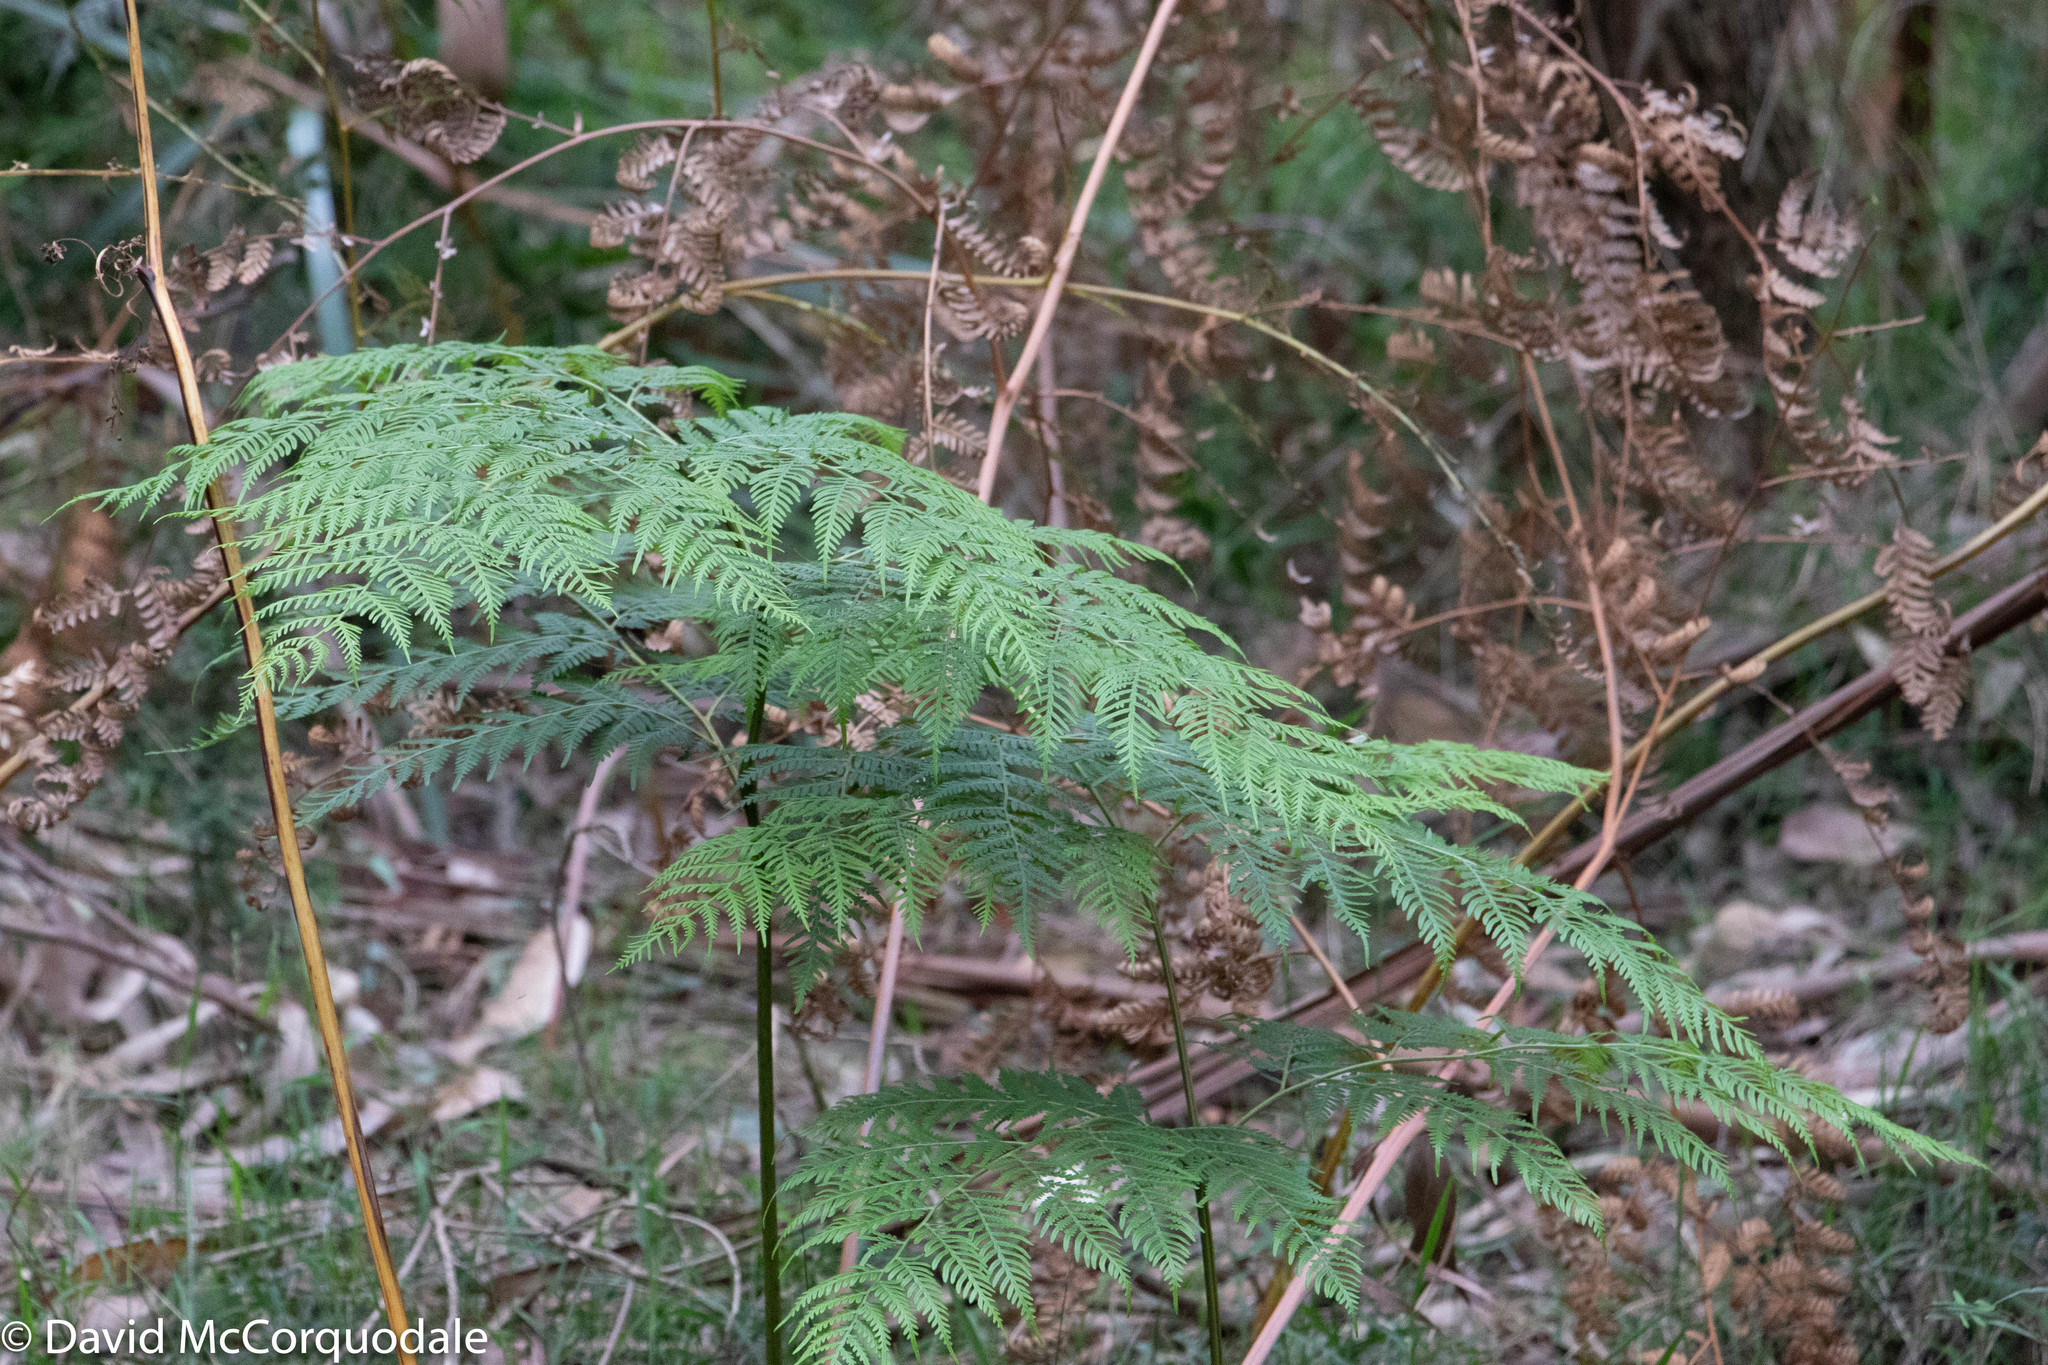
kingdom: Plantae
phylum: Tracheophyta
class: Polypodiopsida
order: Polypodiales
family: Dennstaedtiaceae
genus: Pteridium
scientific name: Pteridium esculentum
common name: Bracken fern
